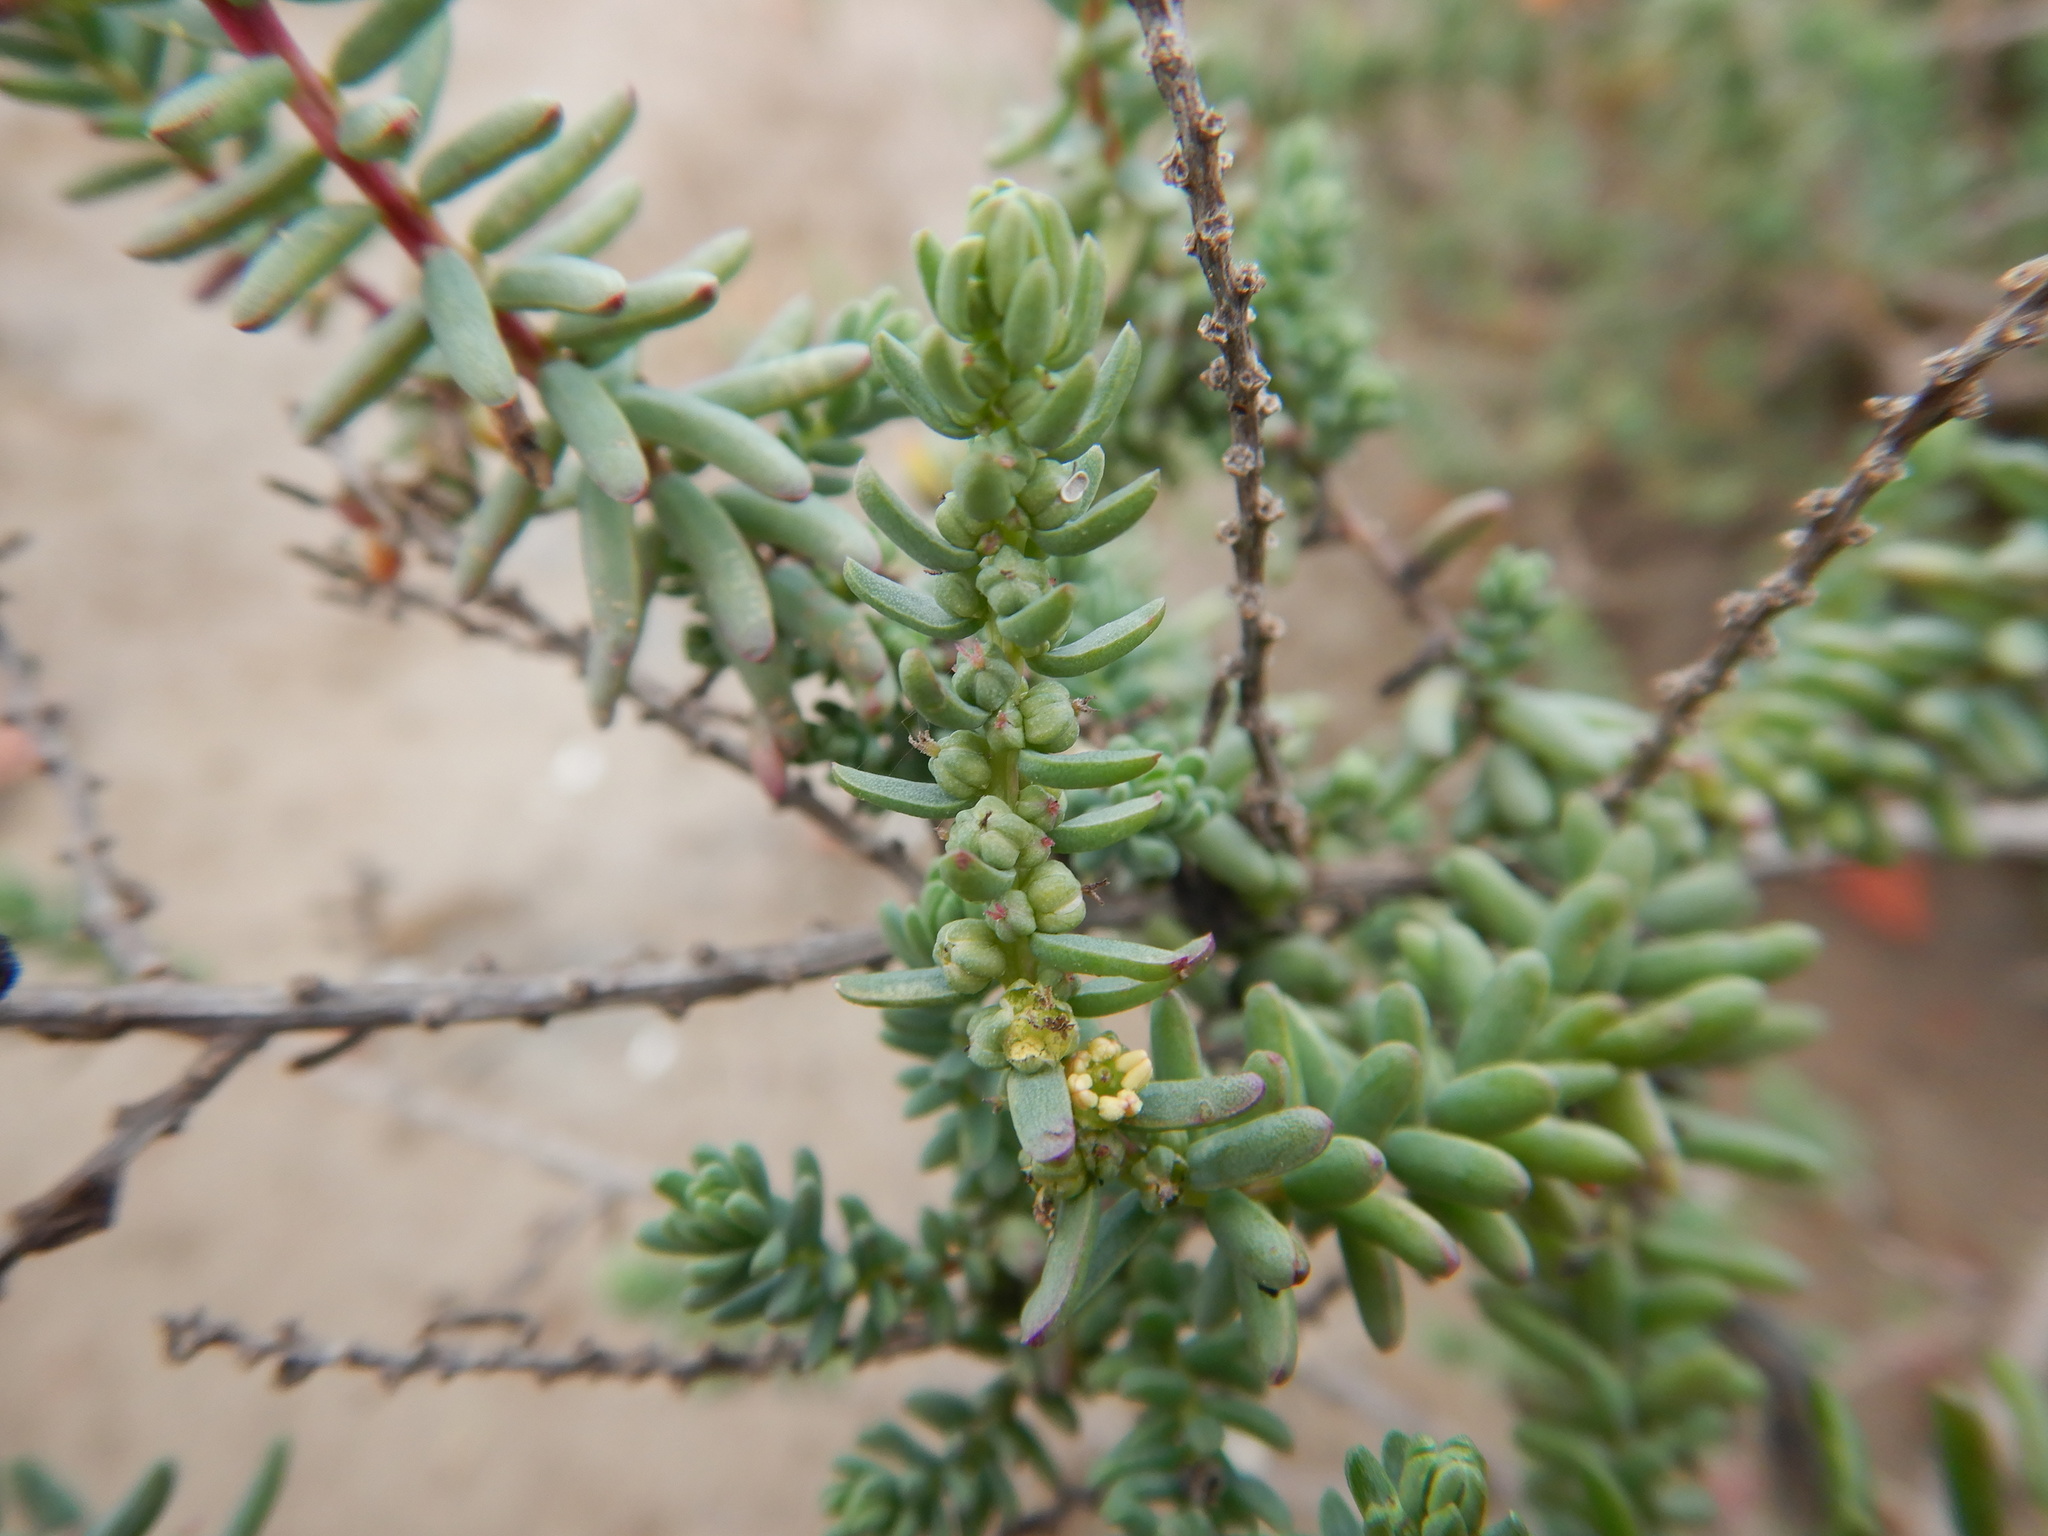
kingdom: Plantae
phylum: Tracheophyta
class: Magnoliopsida
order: Caryophyllales
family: Amaranthaceae
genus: Suaeda
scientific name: Suaeda vera
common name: Shrubby sea-blite
